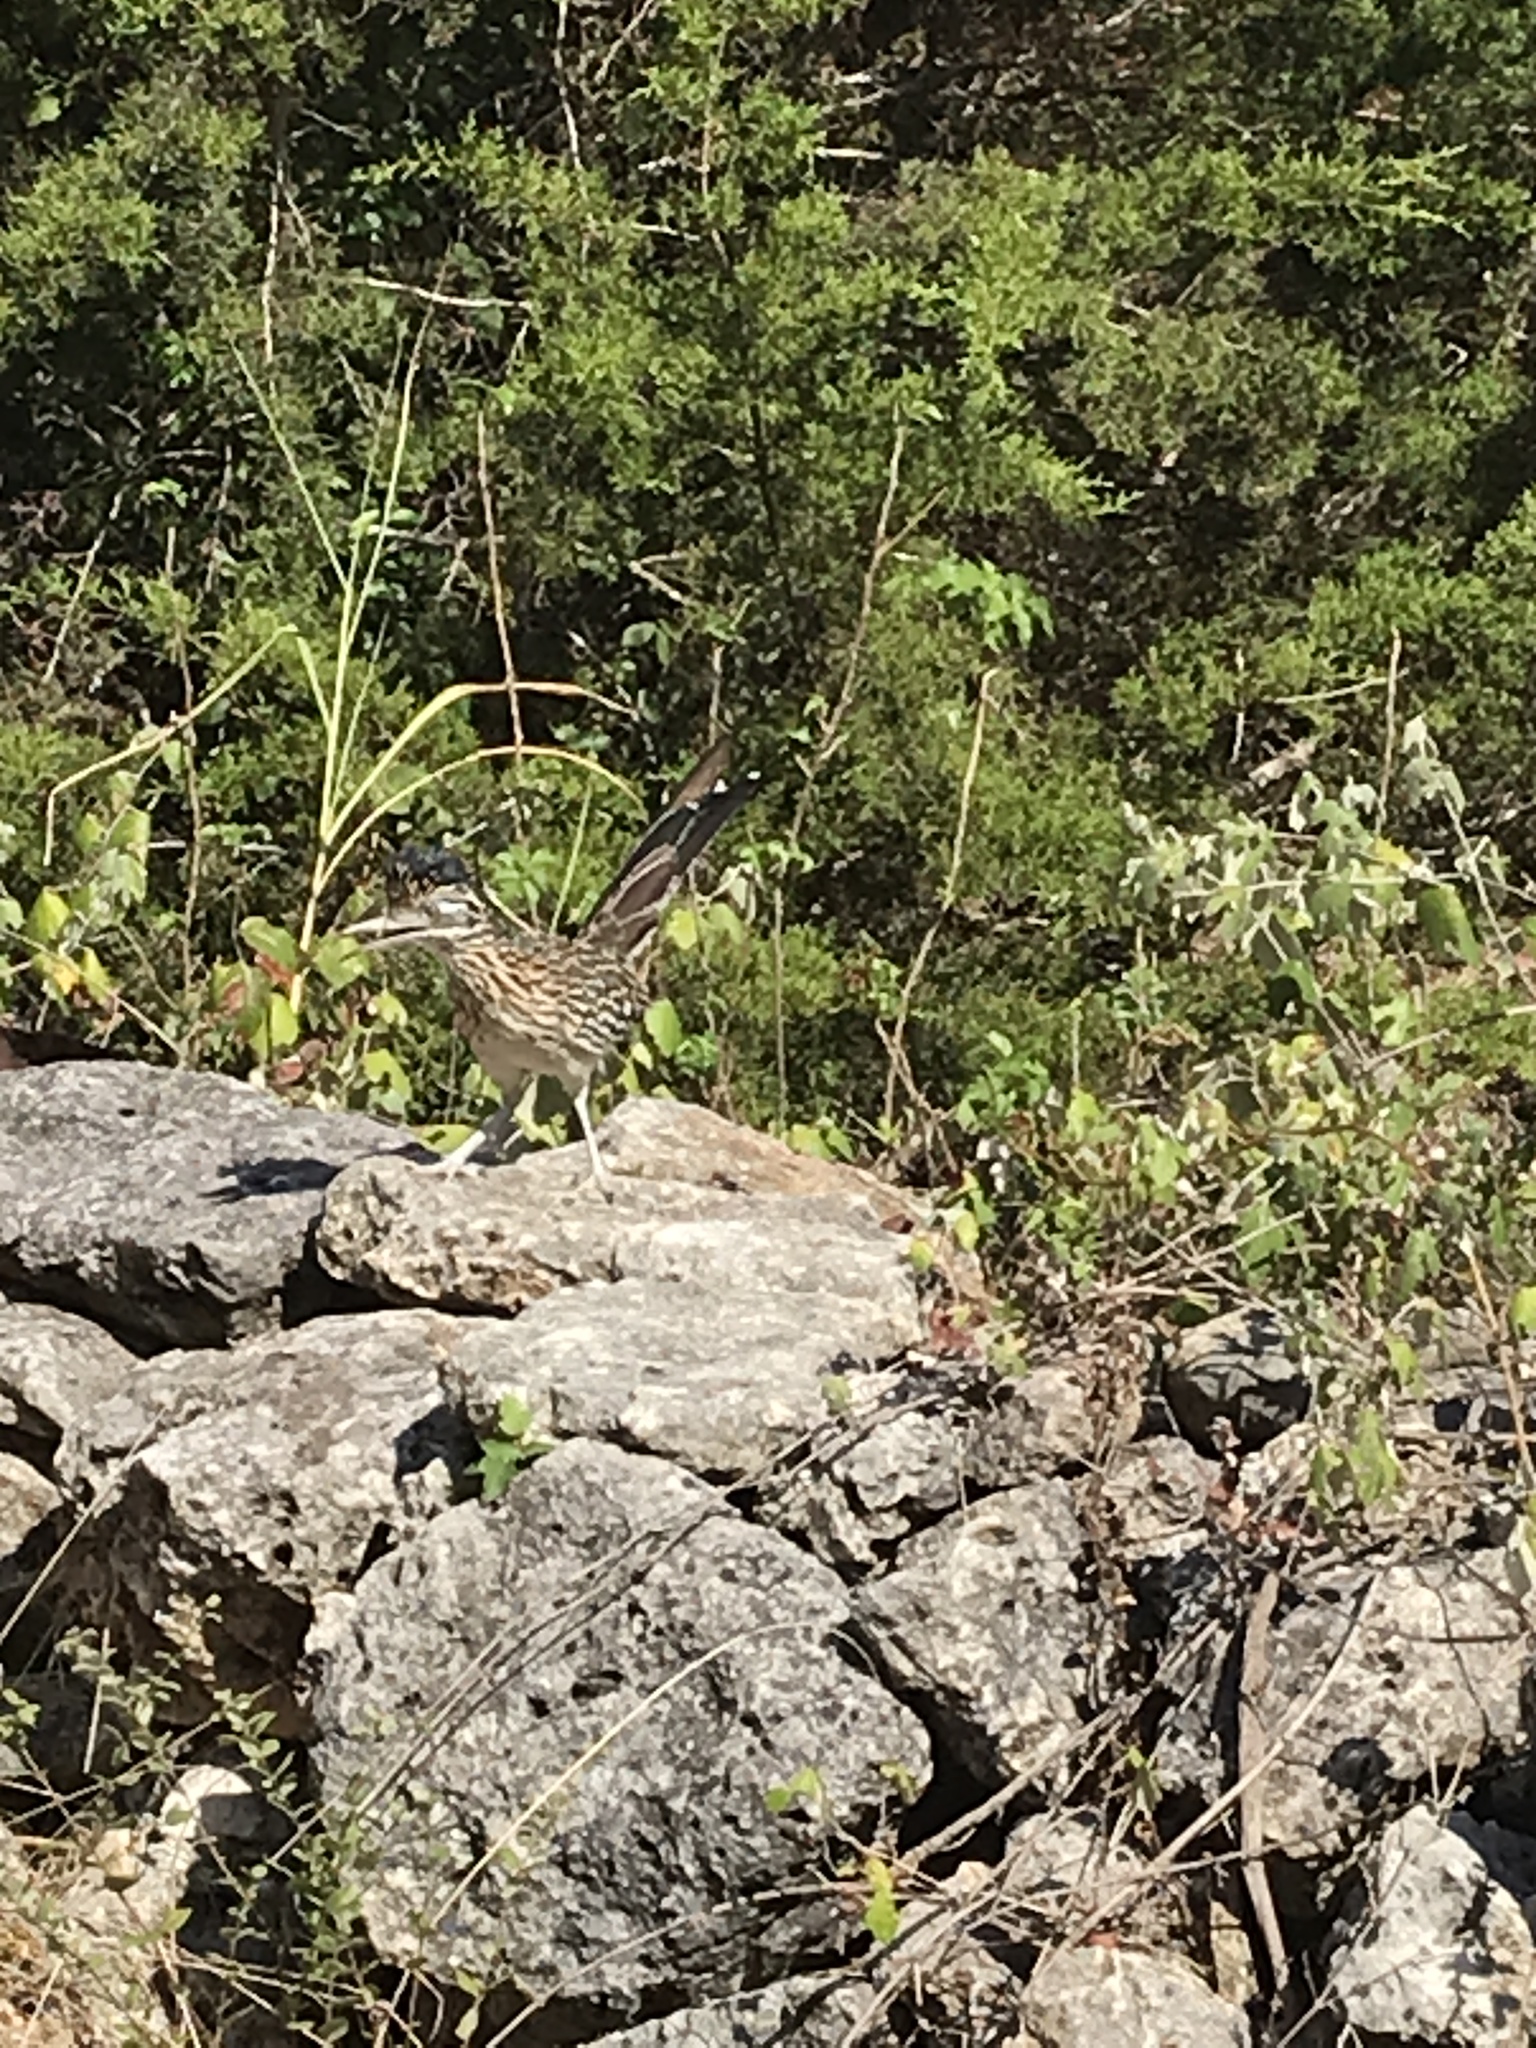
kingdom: Animalia
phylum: Chordata
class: Aves
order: Cuculiformes
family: Cuculidae
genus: Geococcyx
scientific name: Geococcyx californianus
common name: Greater roadrunner
